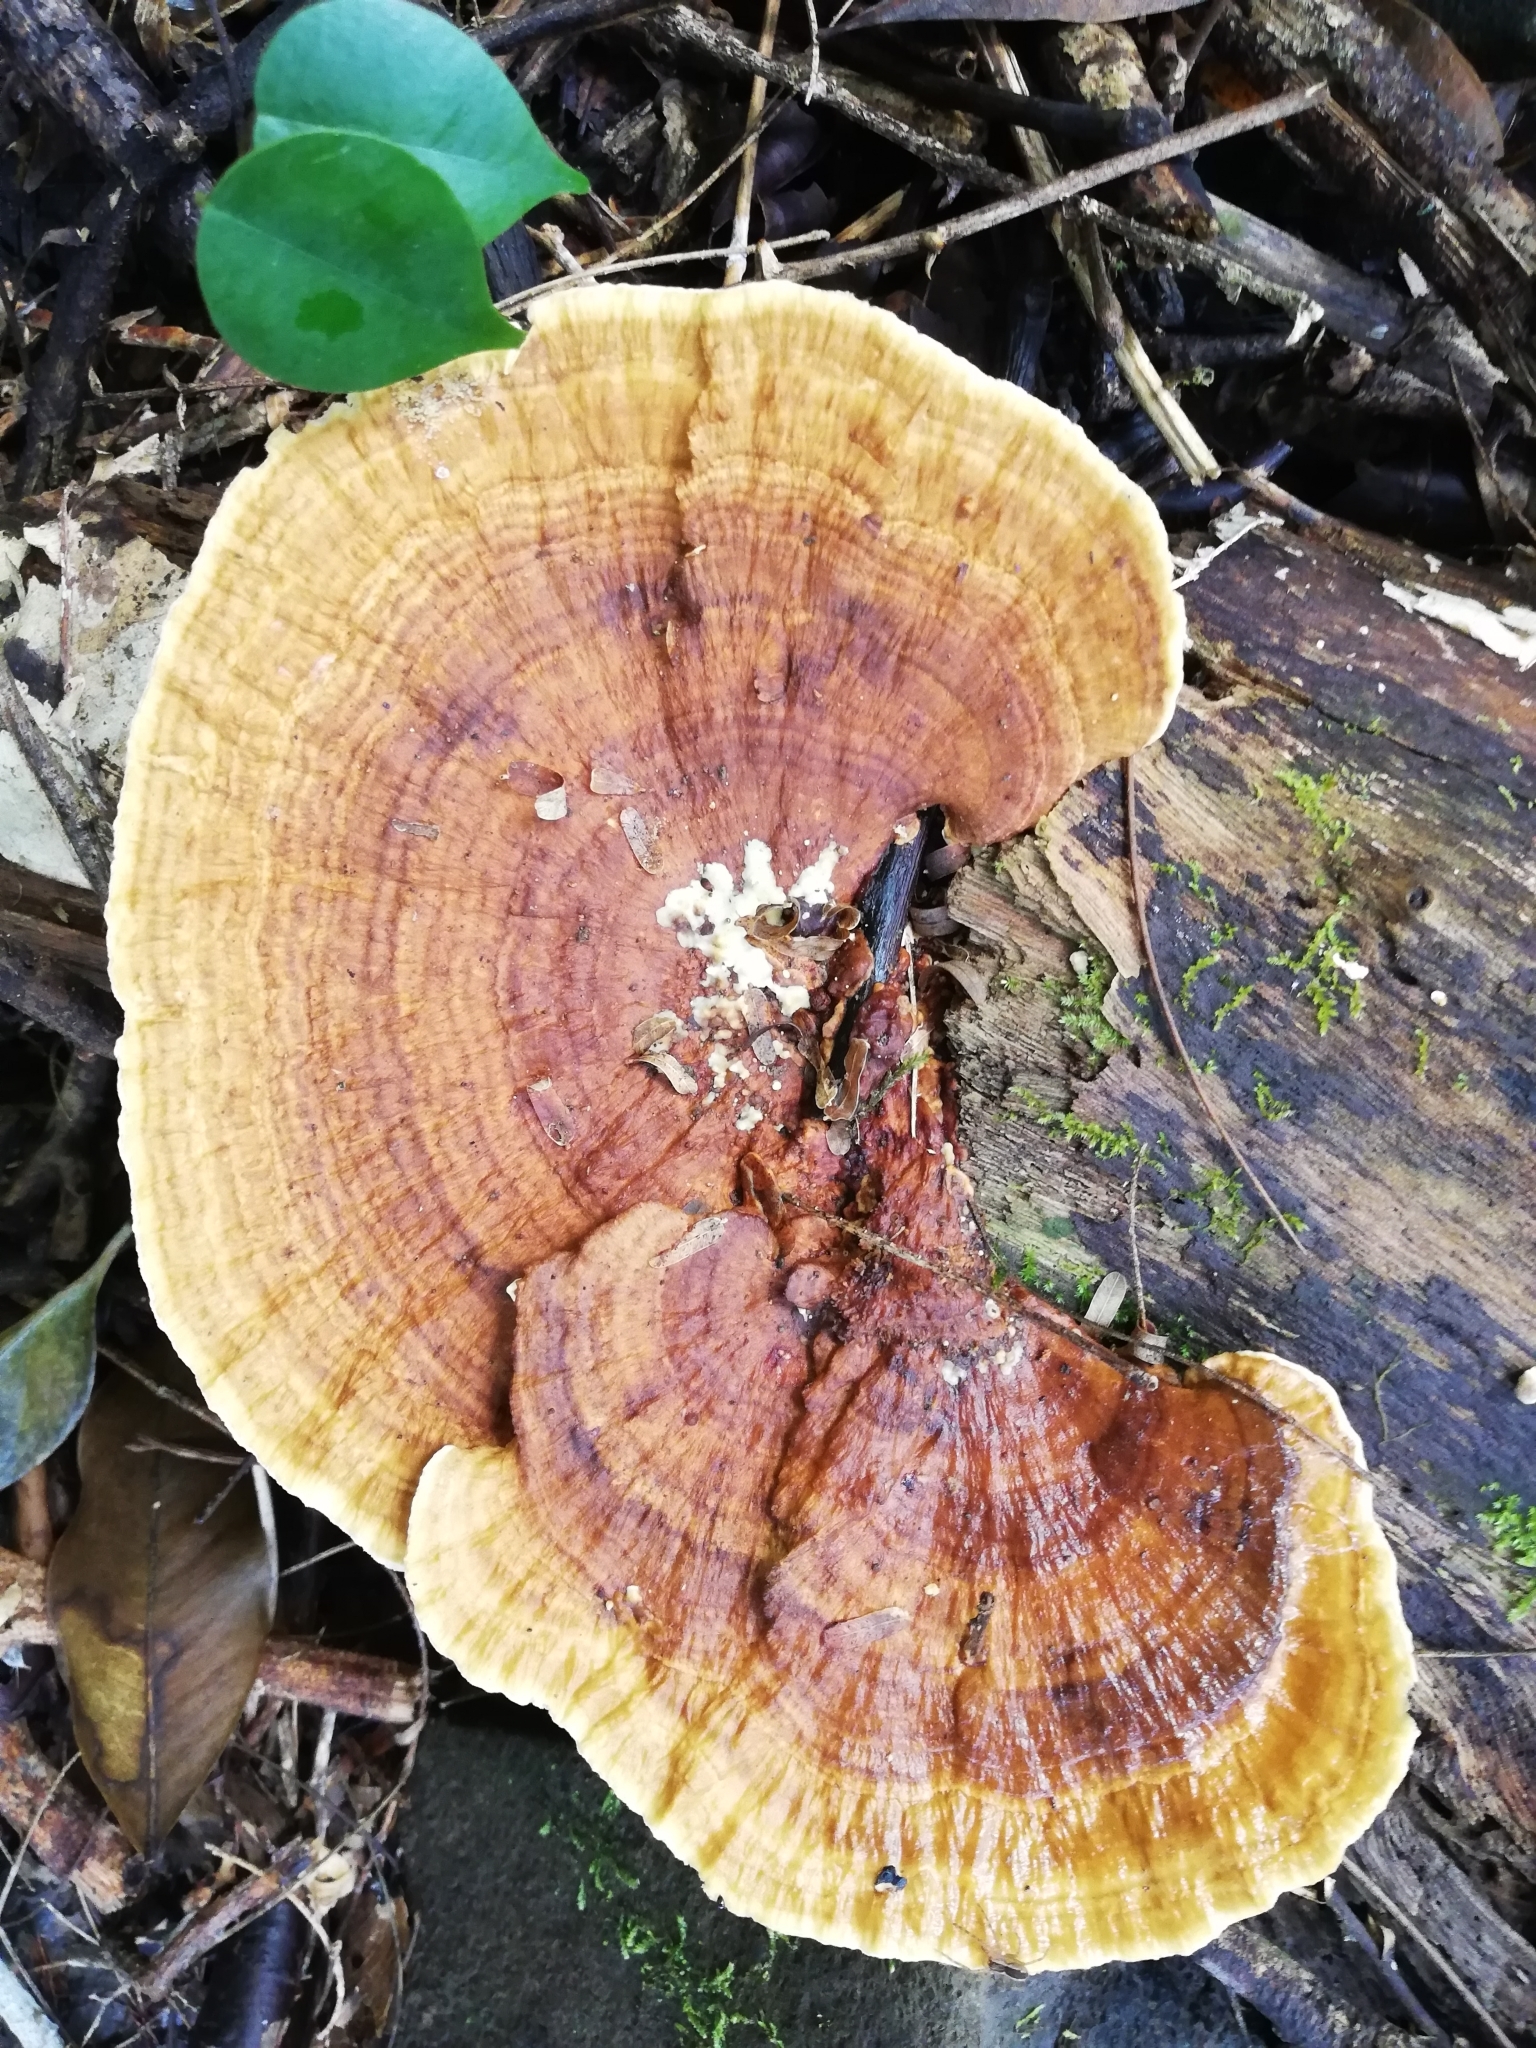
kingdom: Fungi
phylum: Basidiomycota
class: Agaricomycetes
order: Polyporales
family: Polyporaceae
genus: Trametes
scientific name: Trametes versicolor
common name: Turkeytail
